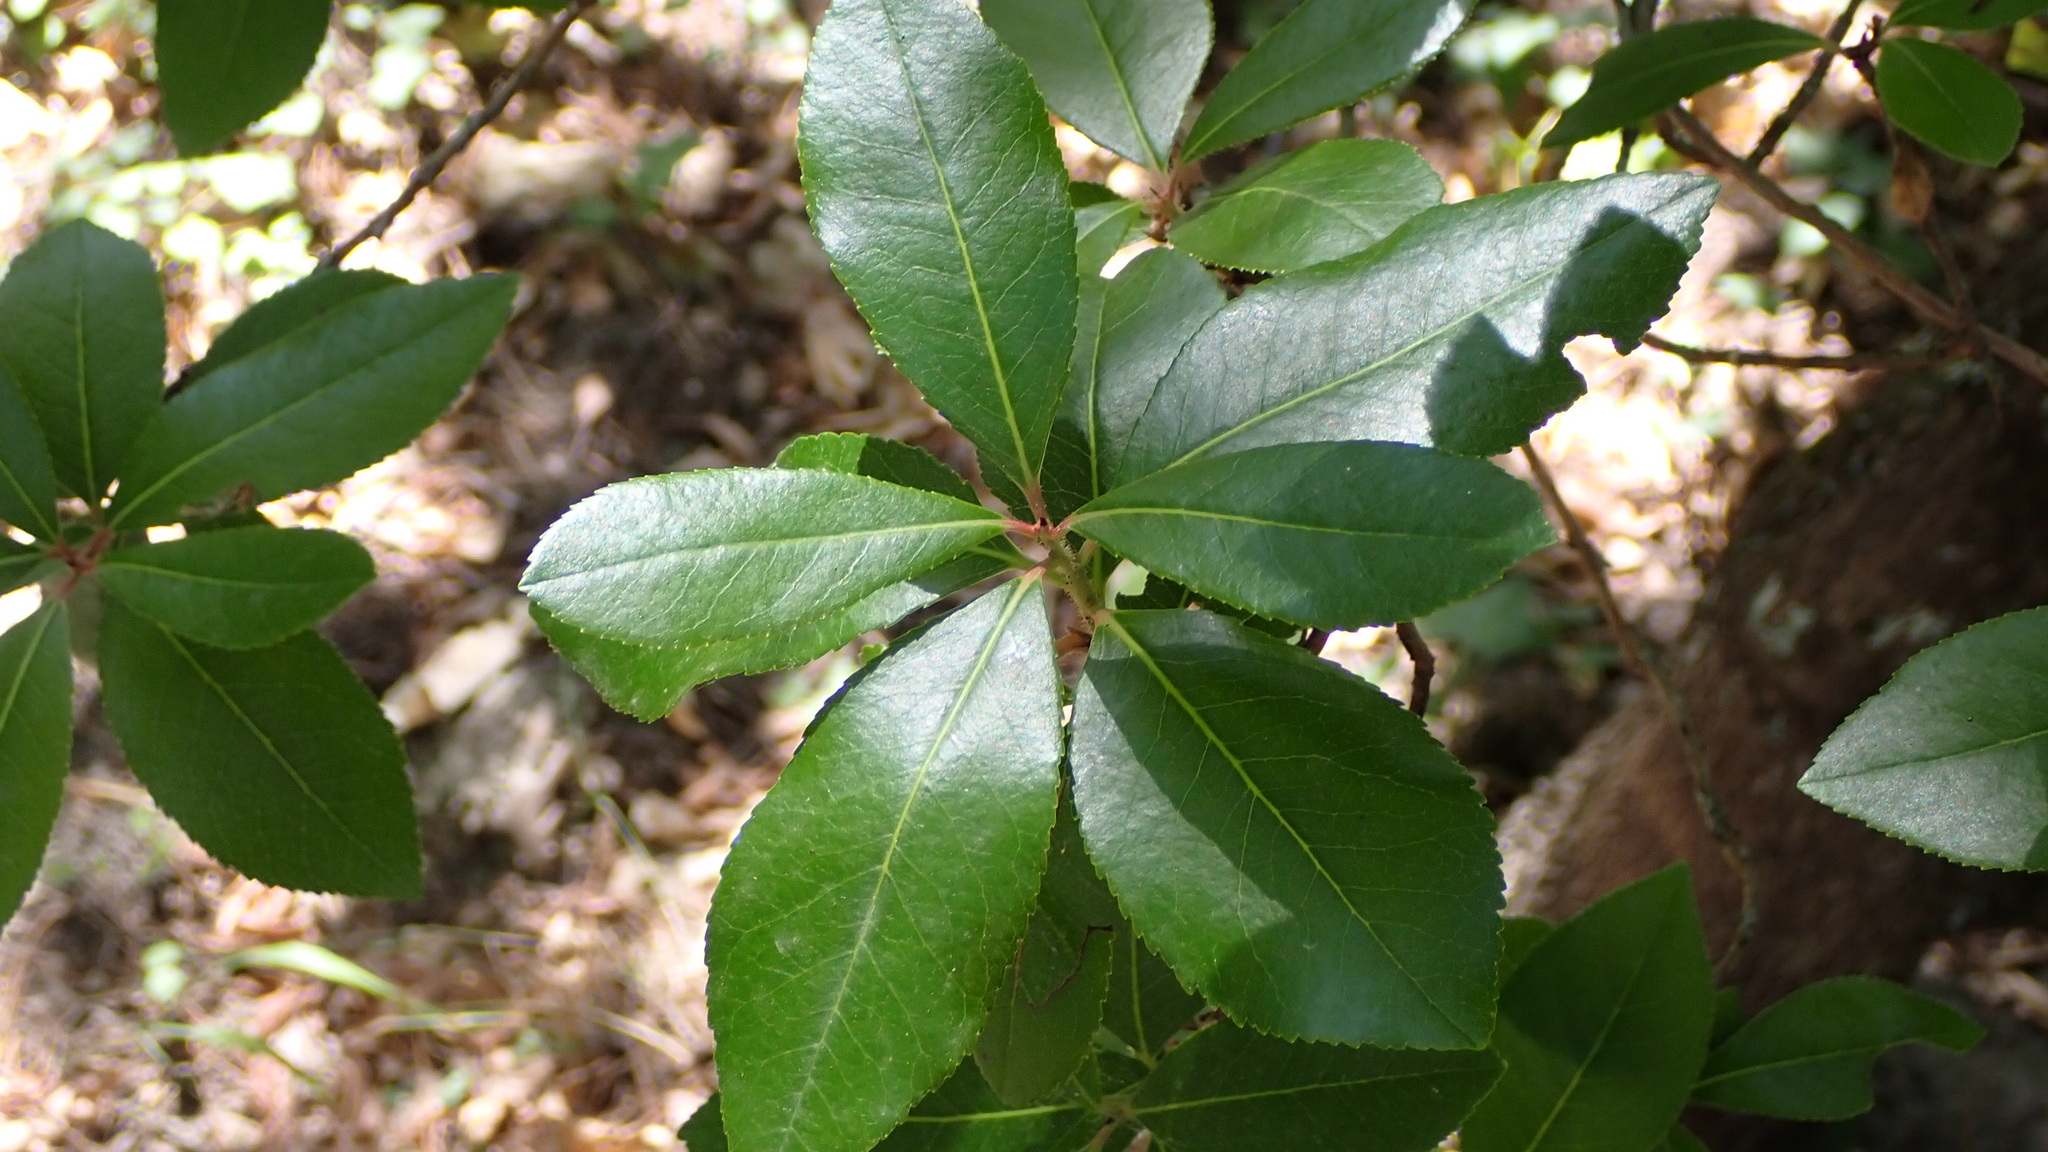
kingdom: Plantae
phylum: Tracheophyta
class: Magnoliopsida
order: Ericales
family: Ericaceae
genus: Arbutus
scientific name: Arbutus unedo
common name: Strawberry-tree
